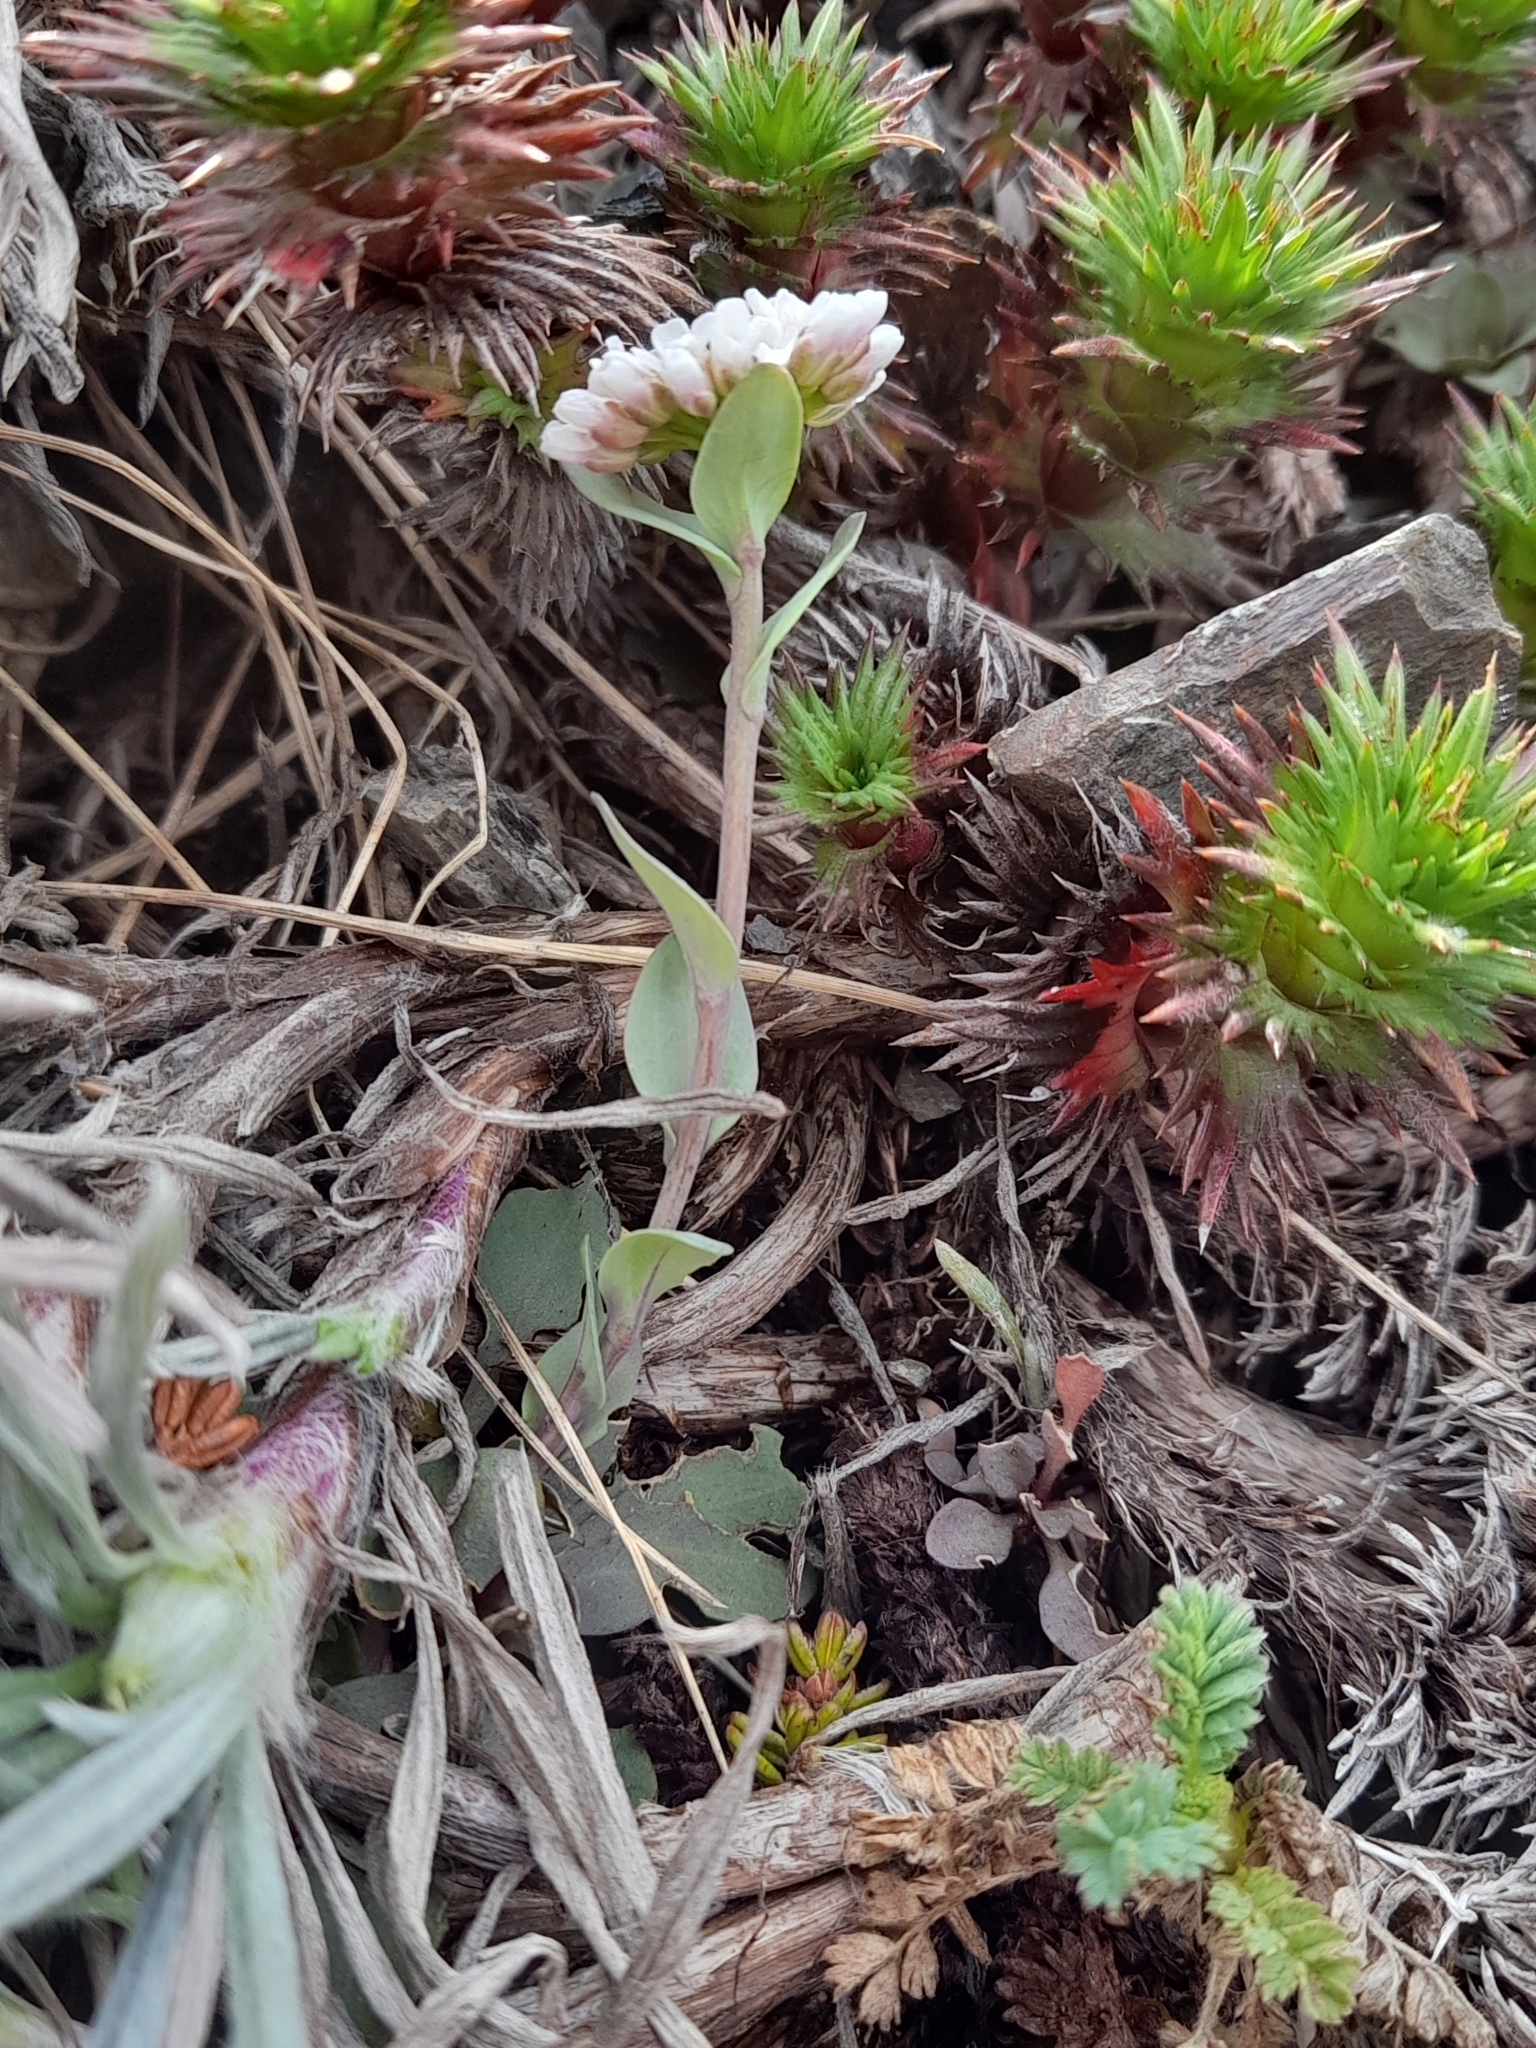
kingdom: Plantae
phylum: Tracheophyta
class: Magnoliopsida
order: Brassicales
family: Brassicaceae
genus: Noccaea
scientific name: Noccaea magellanica
